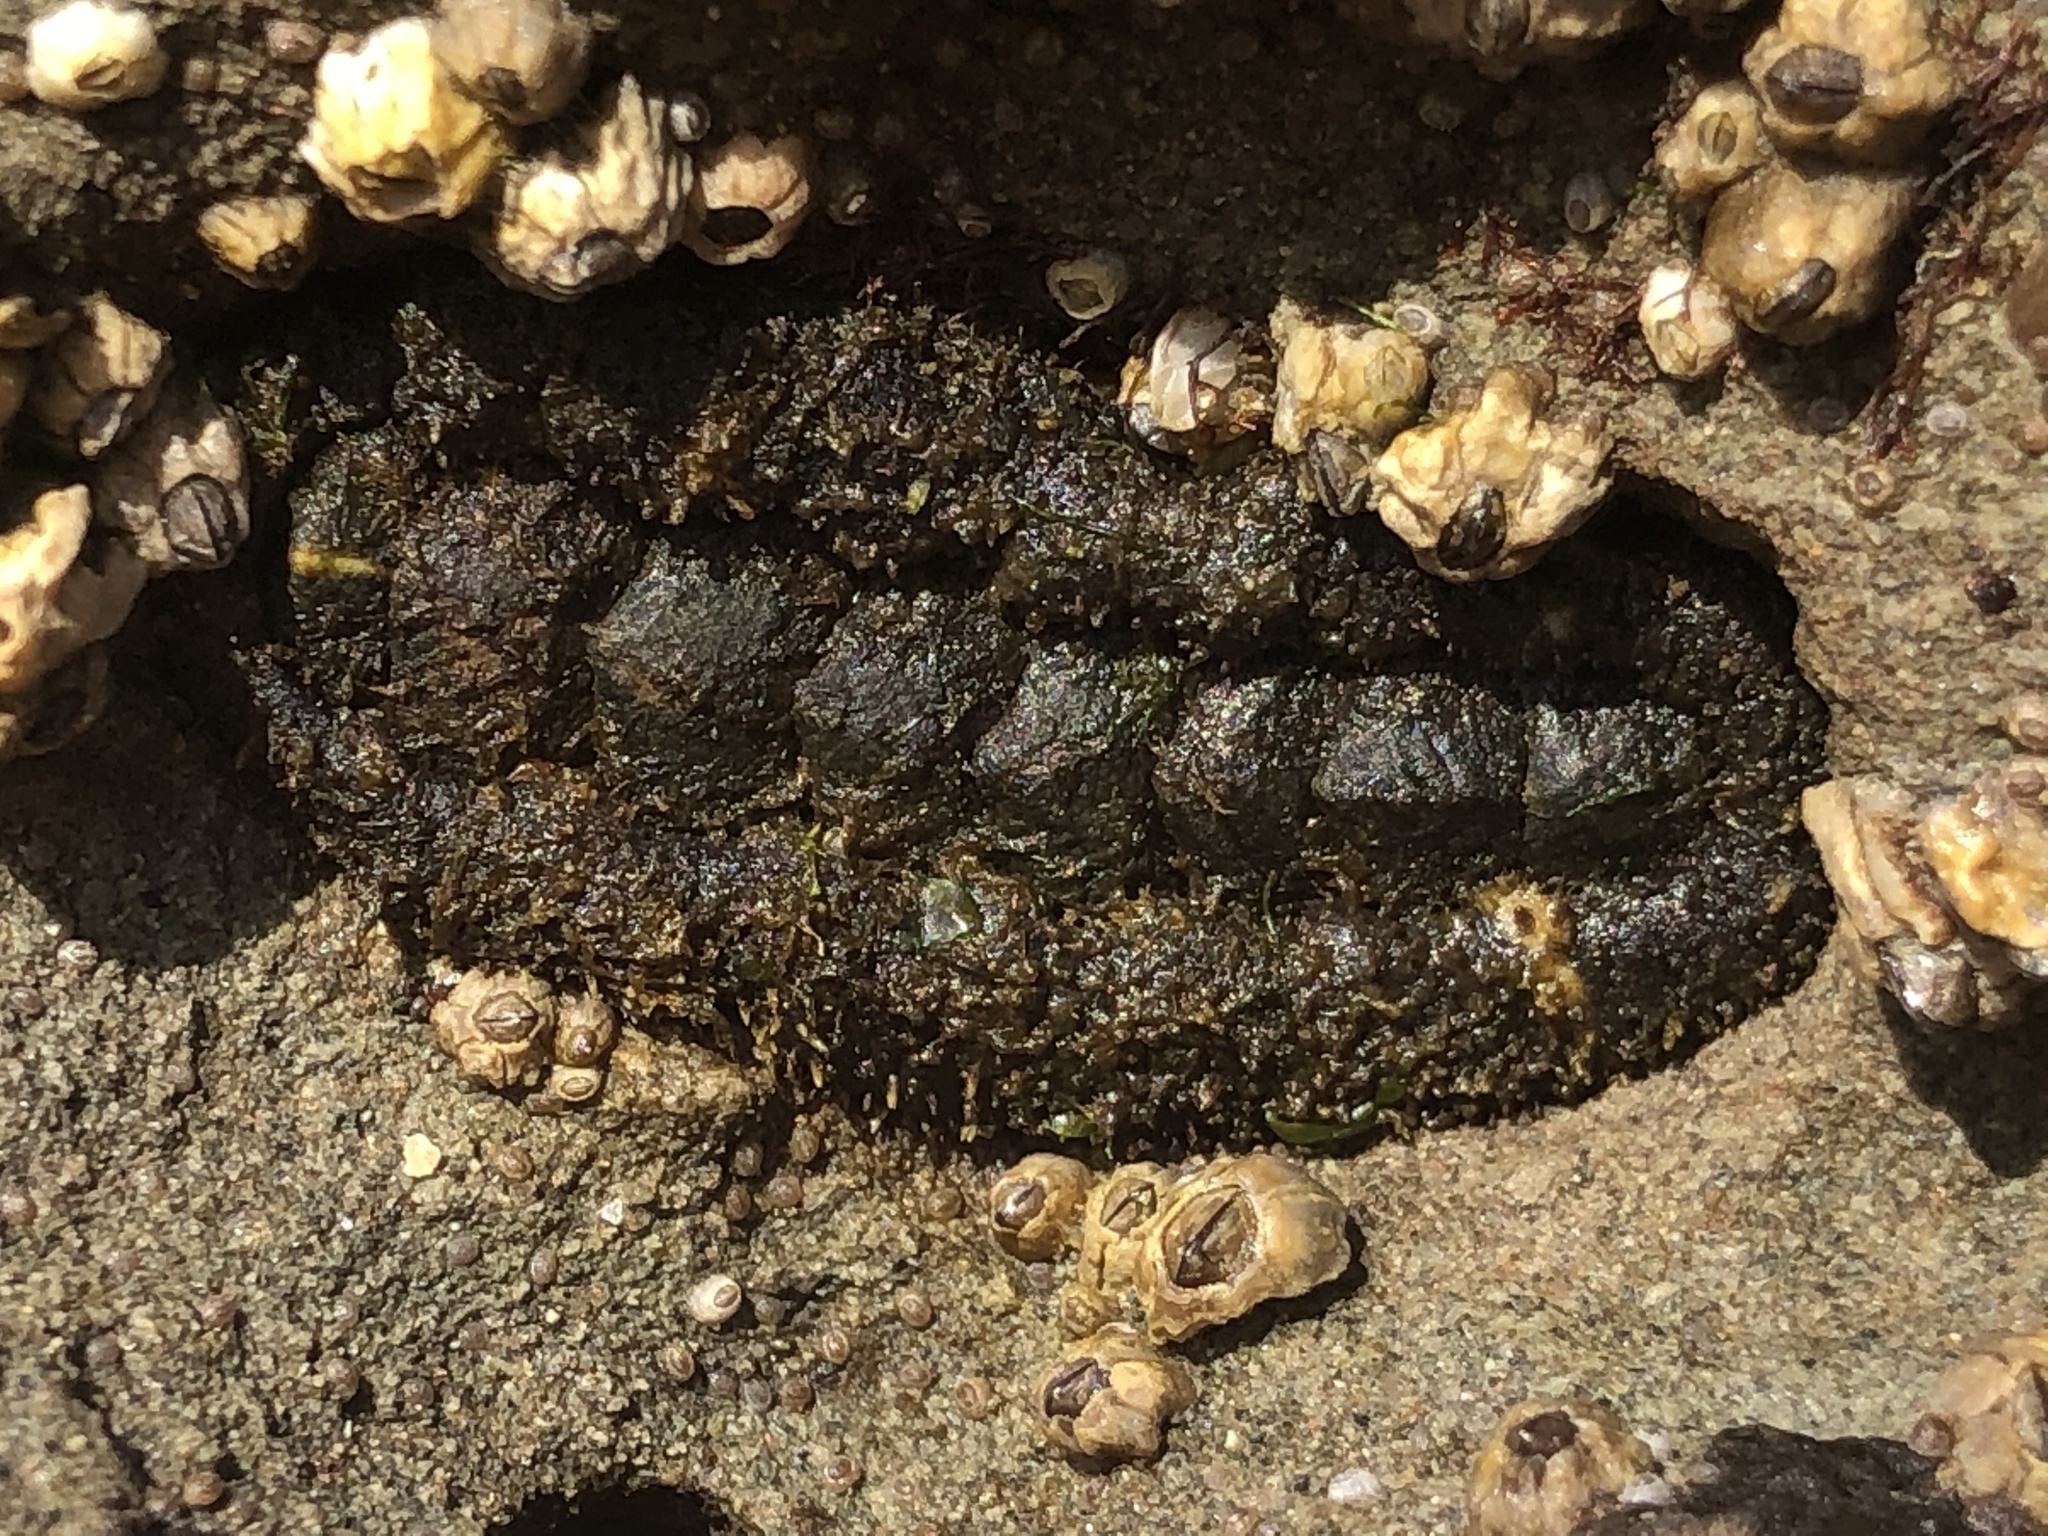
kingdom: Animalia
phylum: Mollusca
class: Polyplacophora
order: Chitonida
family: Tonicellidae
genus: Nuttallina
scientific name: Nuttallina californica
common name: California nuttall chiton
